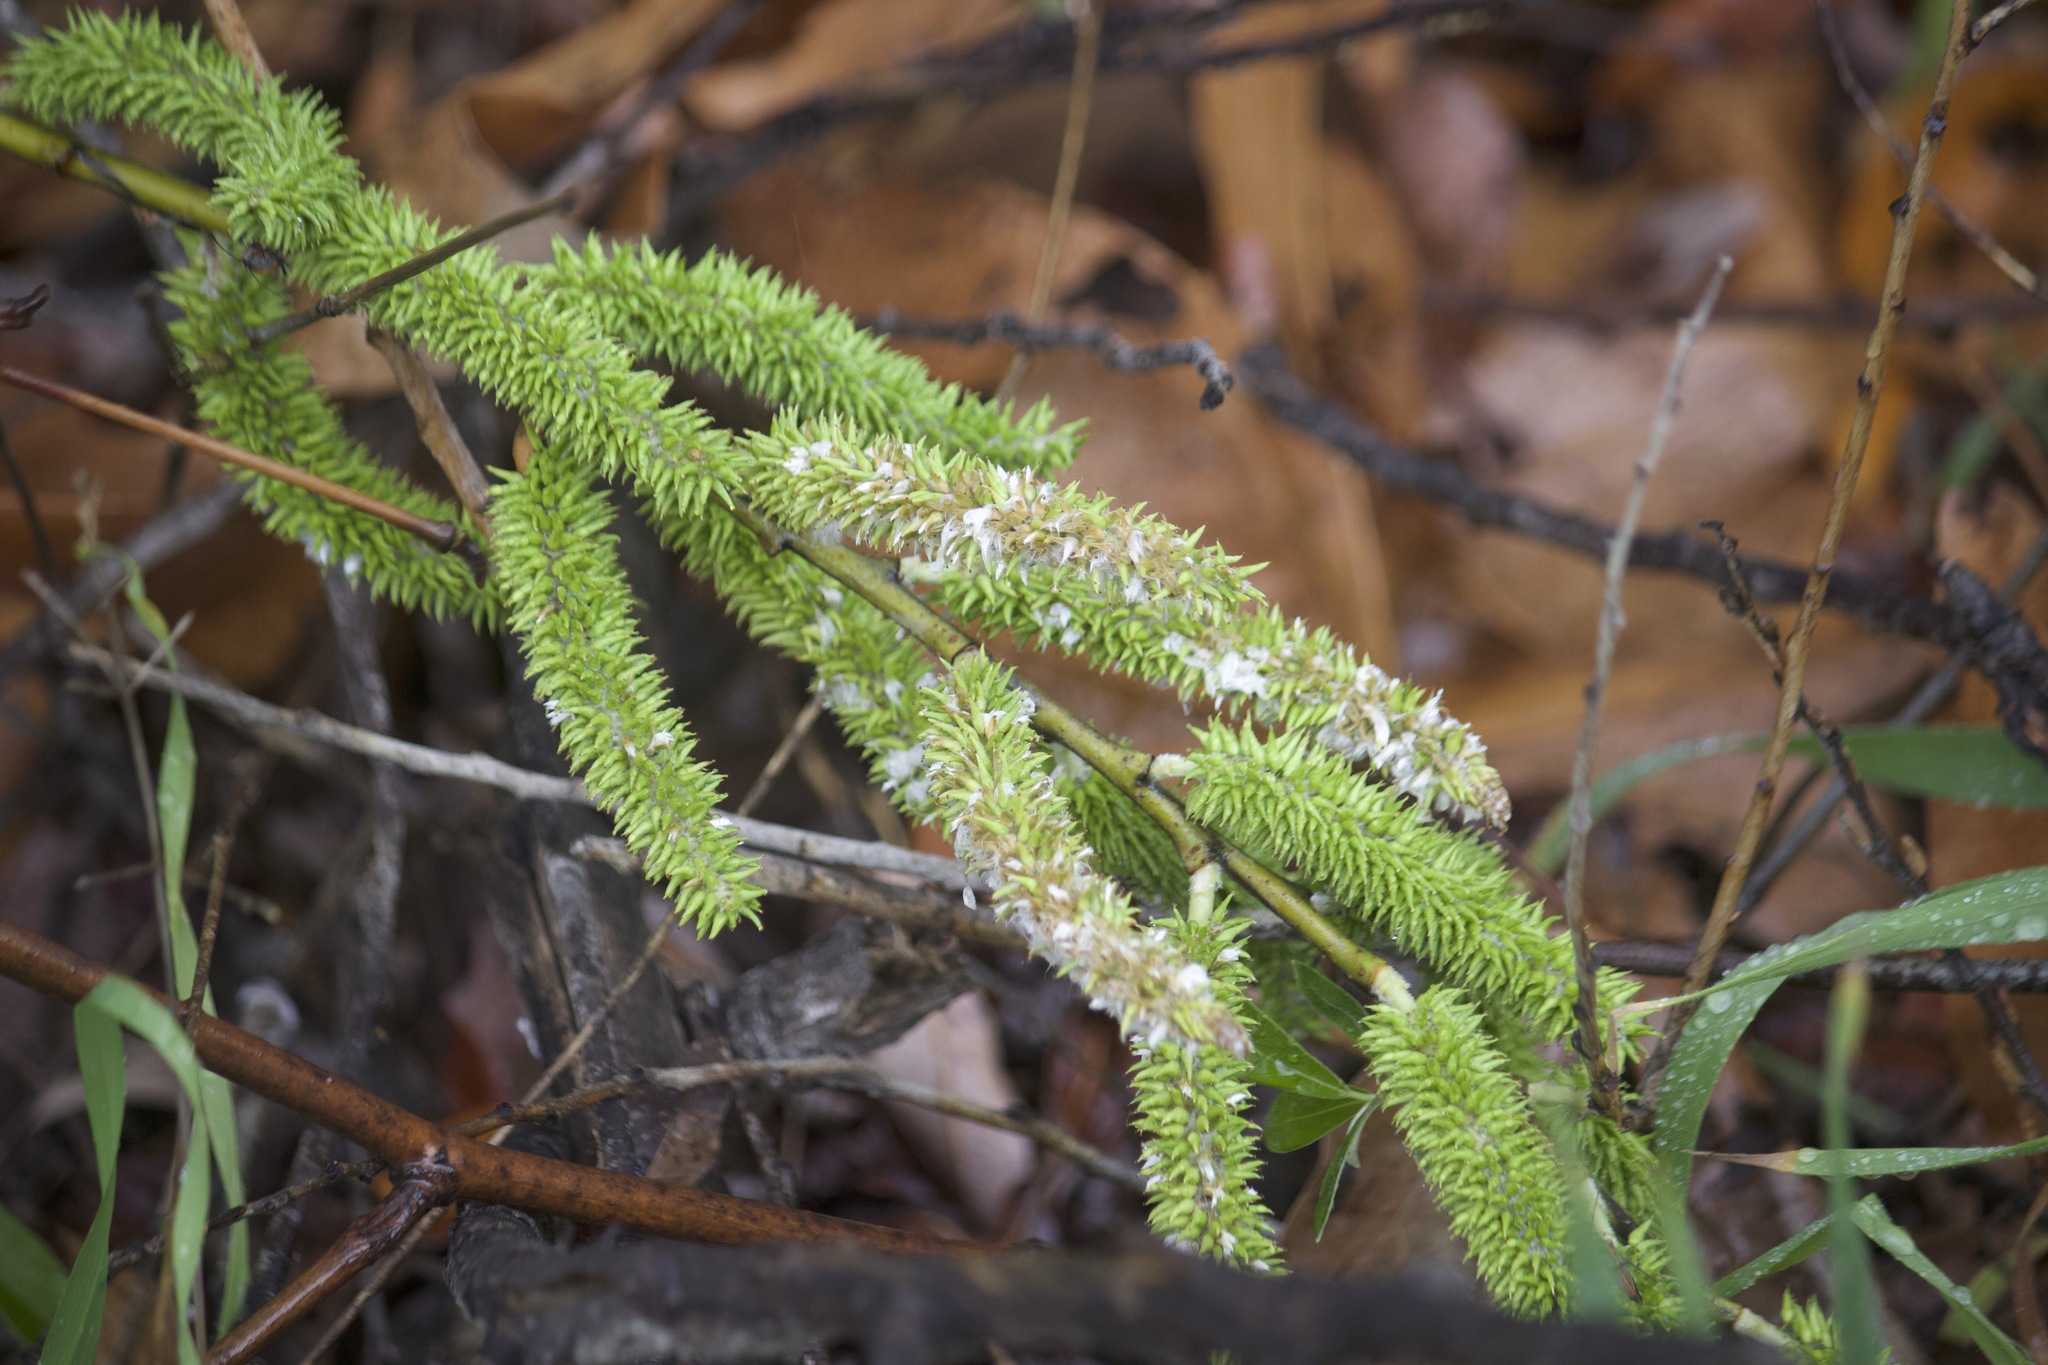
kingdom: Plantae
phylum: Tracheophyta
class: Magnoliopsida
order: Malpighiales
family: Salicaceae
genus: Salix
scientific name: Salix lasiolepis
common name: Arroyo willow
